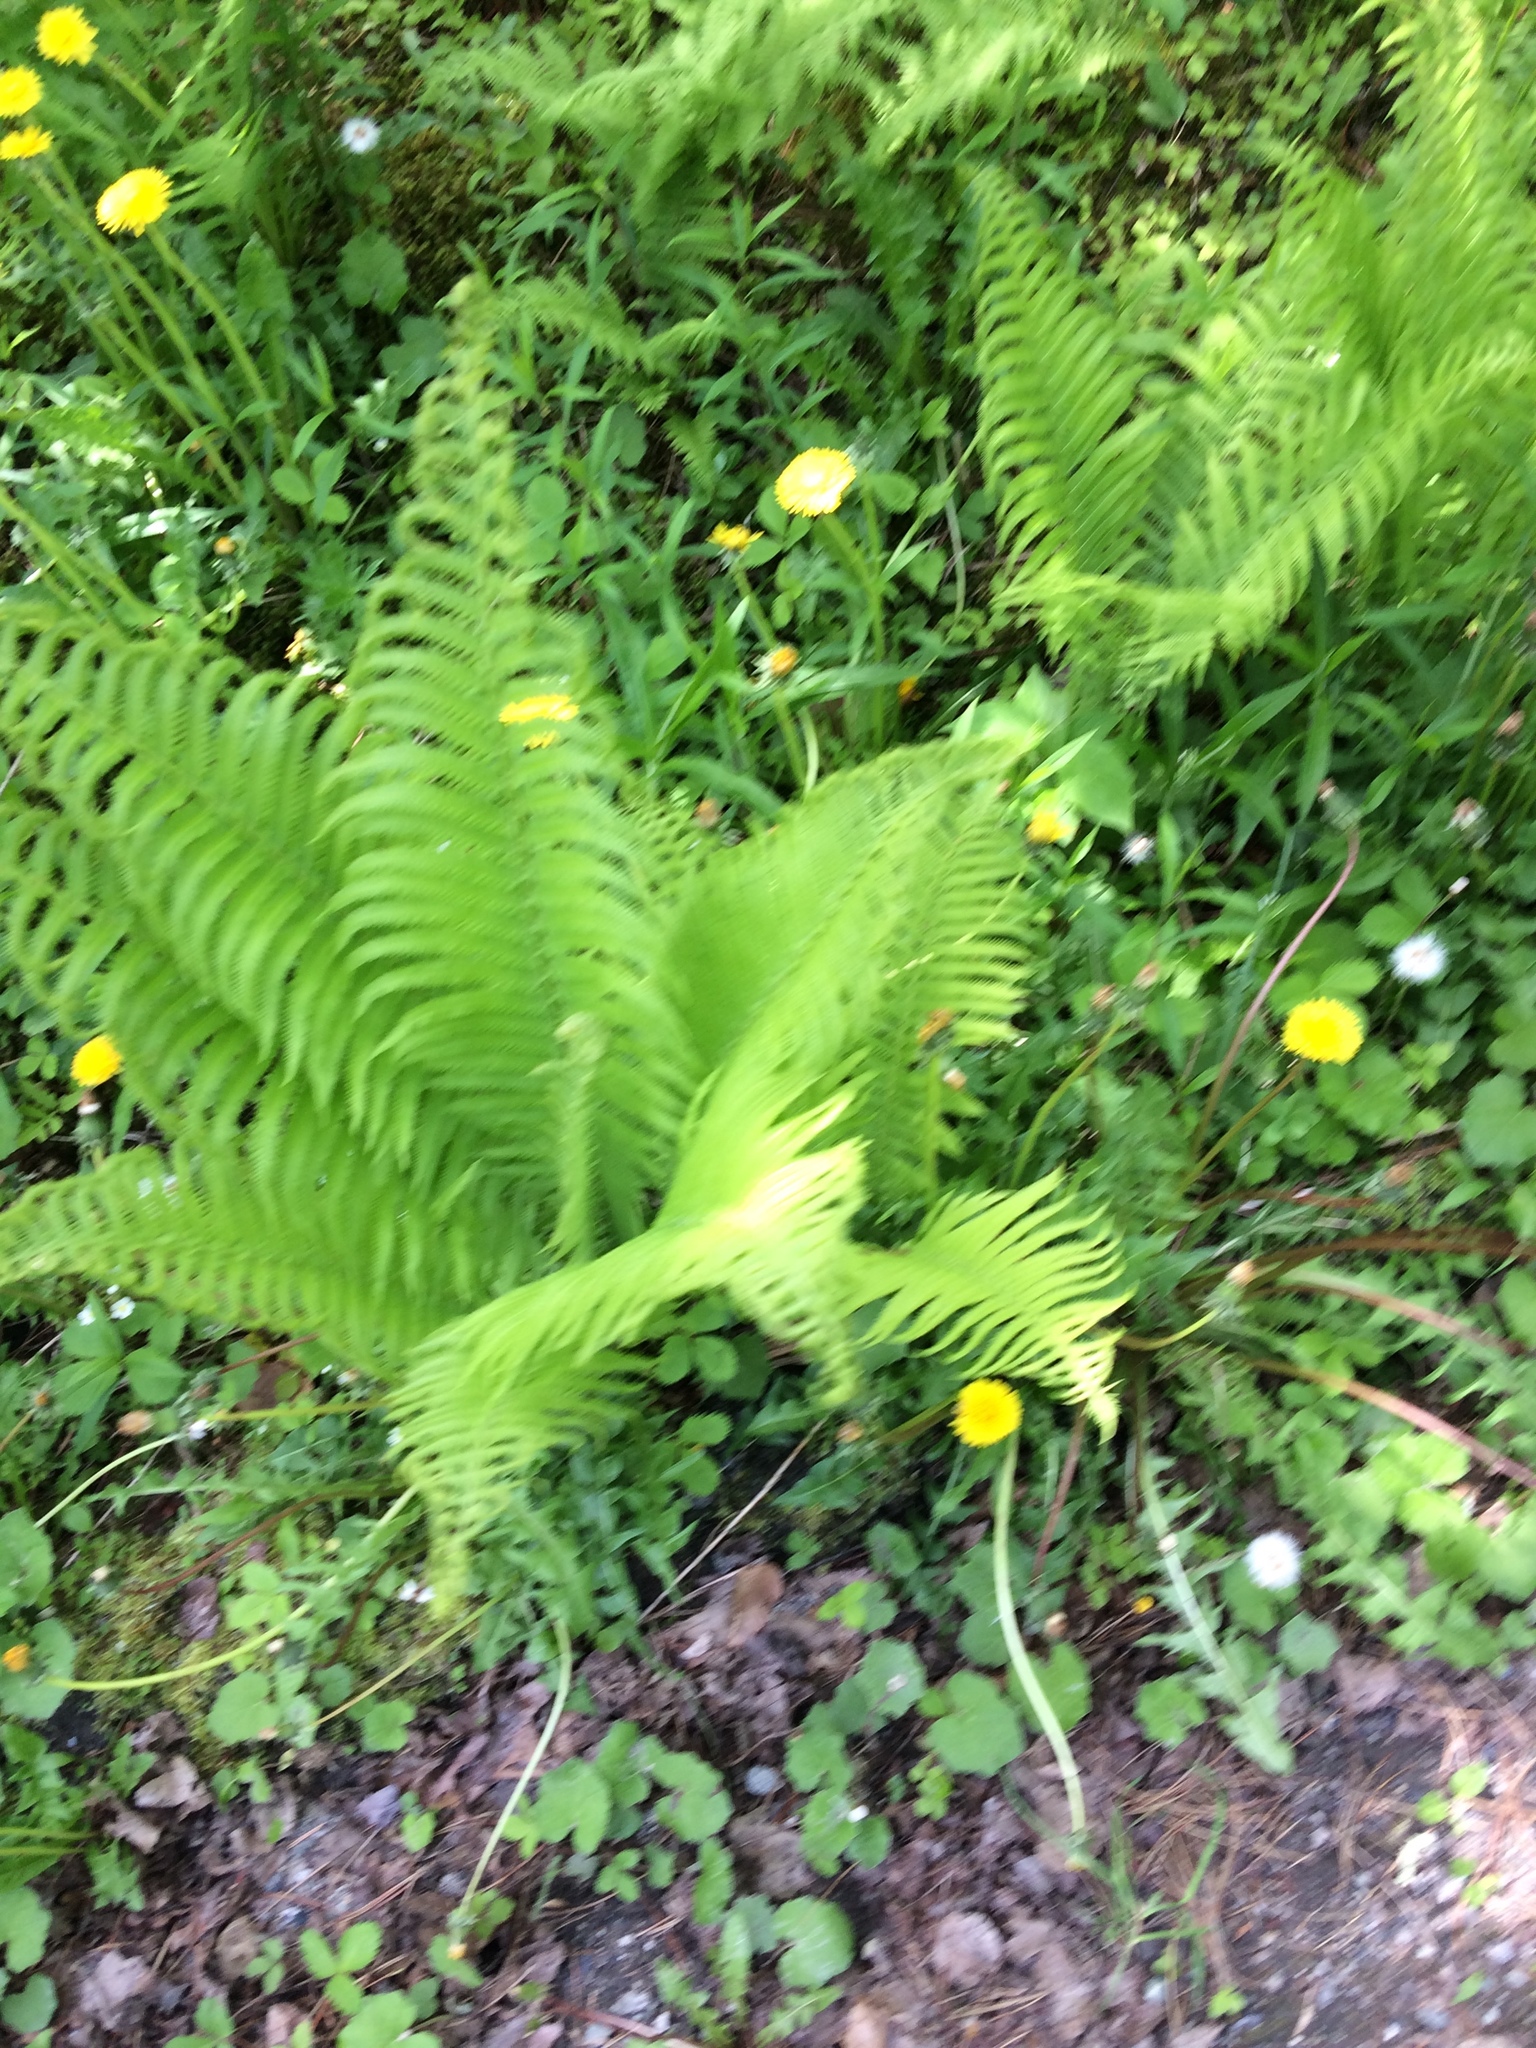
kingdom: Plantae
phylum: Tracheophyta
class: Polypodiopsida
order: Polypodiales
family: Onocleaceae
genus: Matteuccia
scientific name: Matteuccia struthiopteris
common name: Ostrich fern
